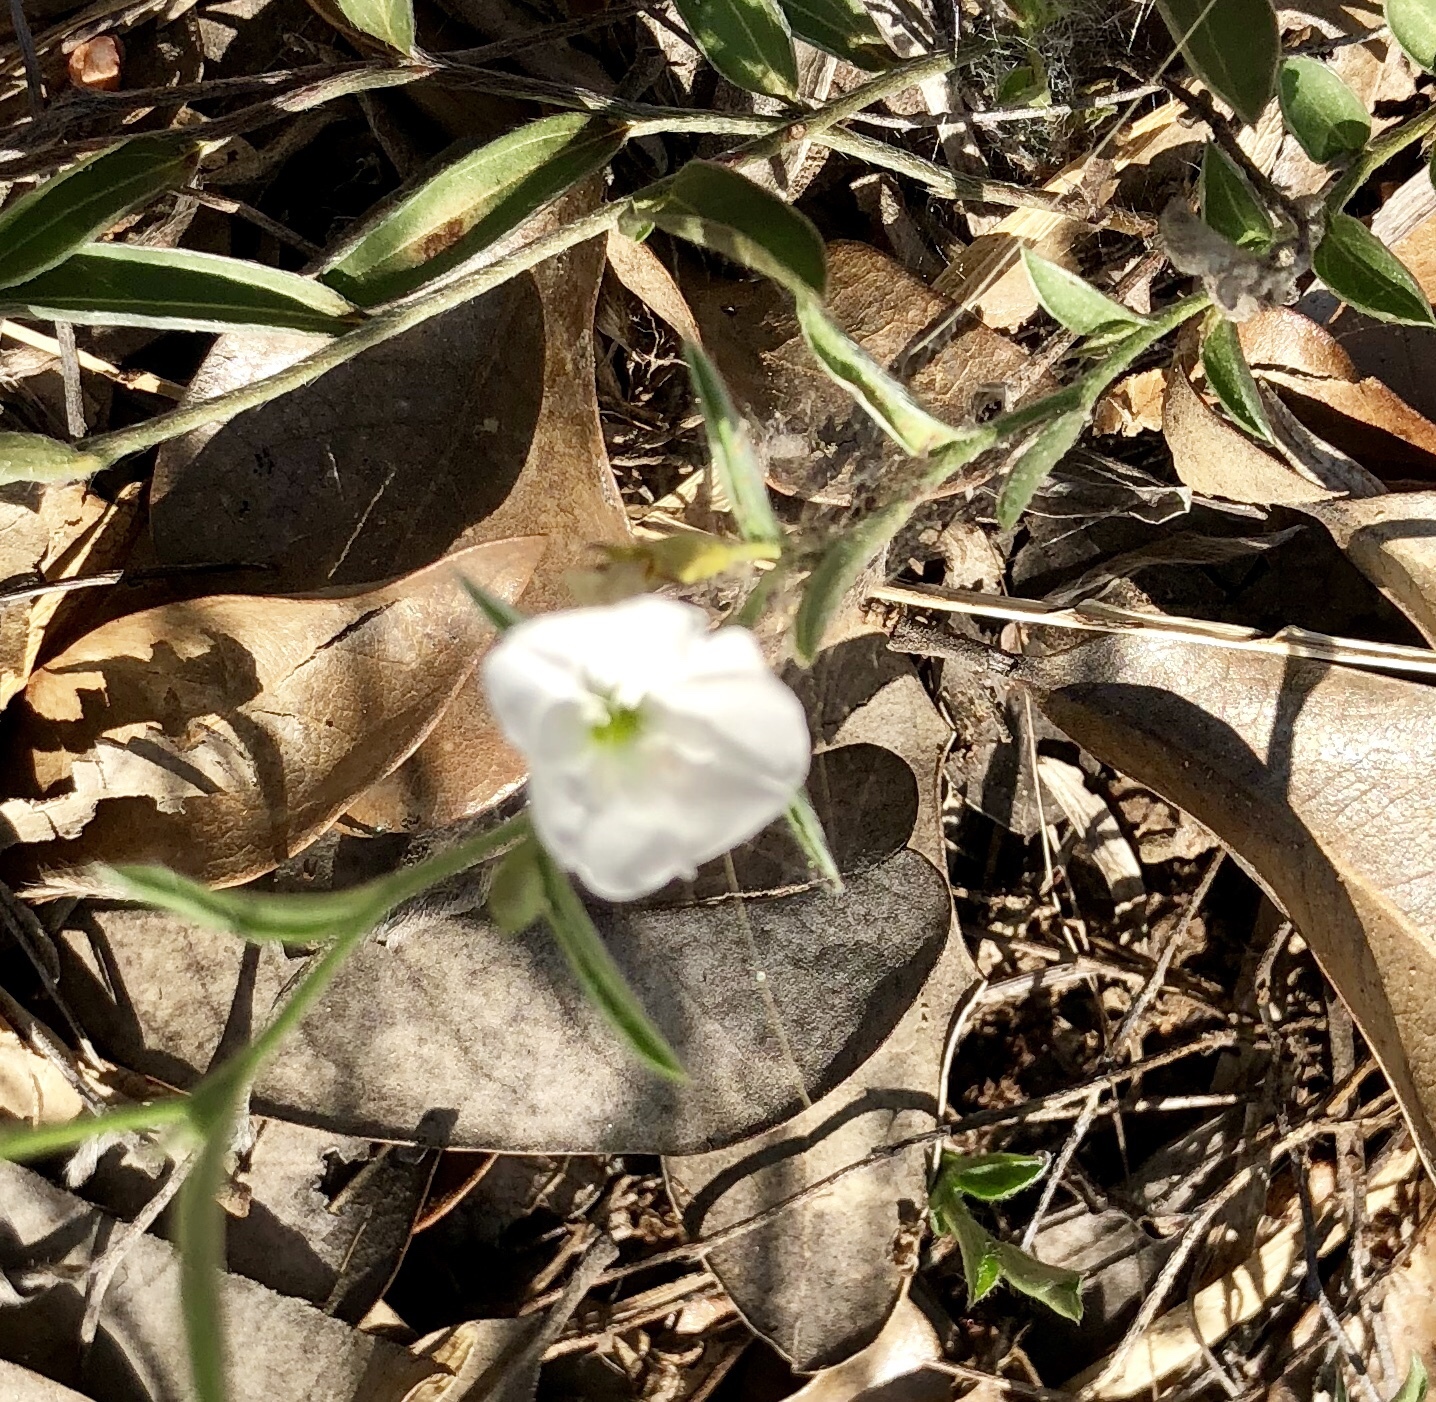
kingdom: Plantae
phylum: Tracheophyta
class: Magnoliopsida
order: Solanales
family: Convolvulaceae
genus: Evolvulus
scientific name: Evolvulus sericeus
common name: Blue dots
